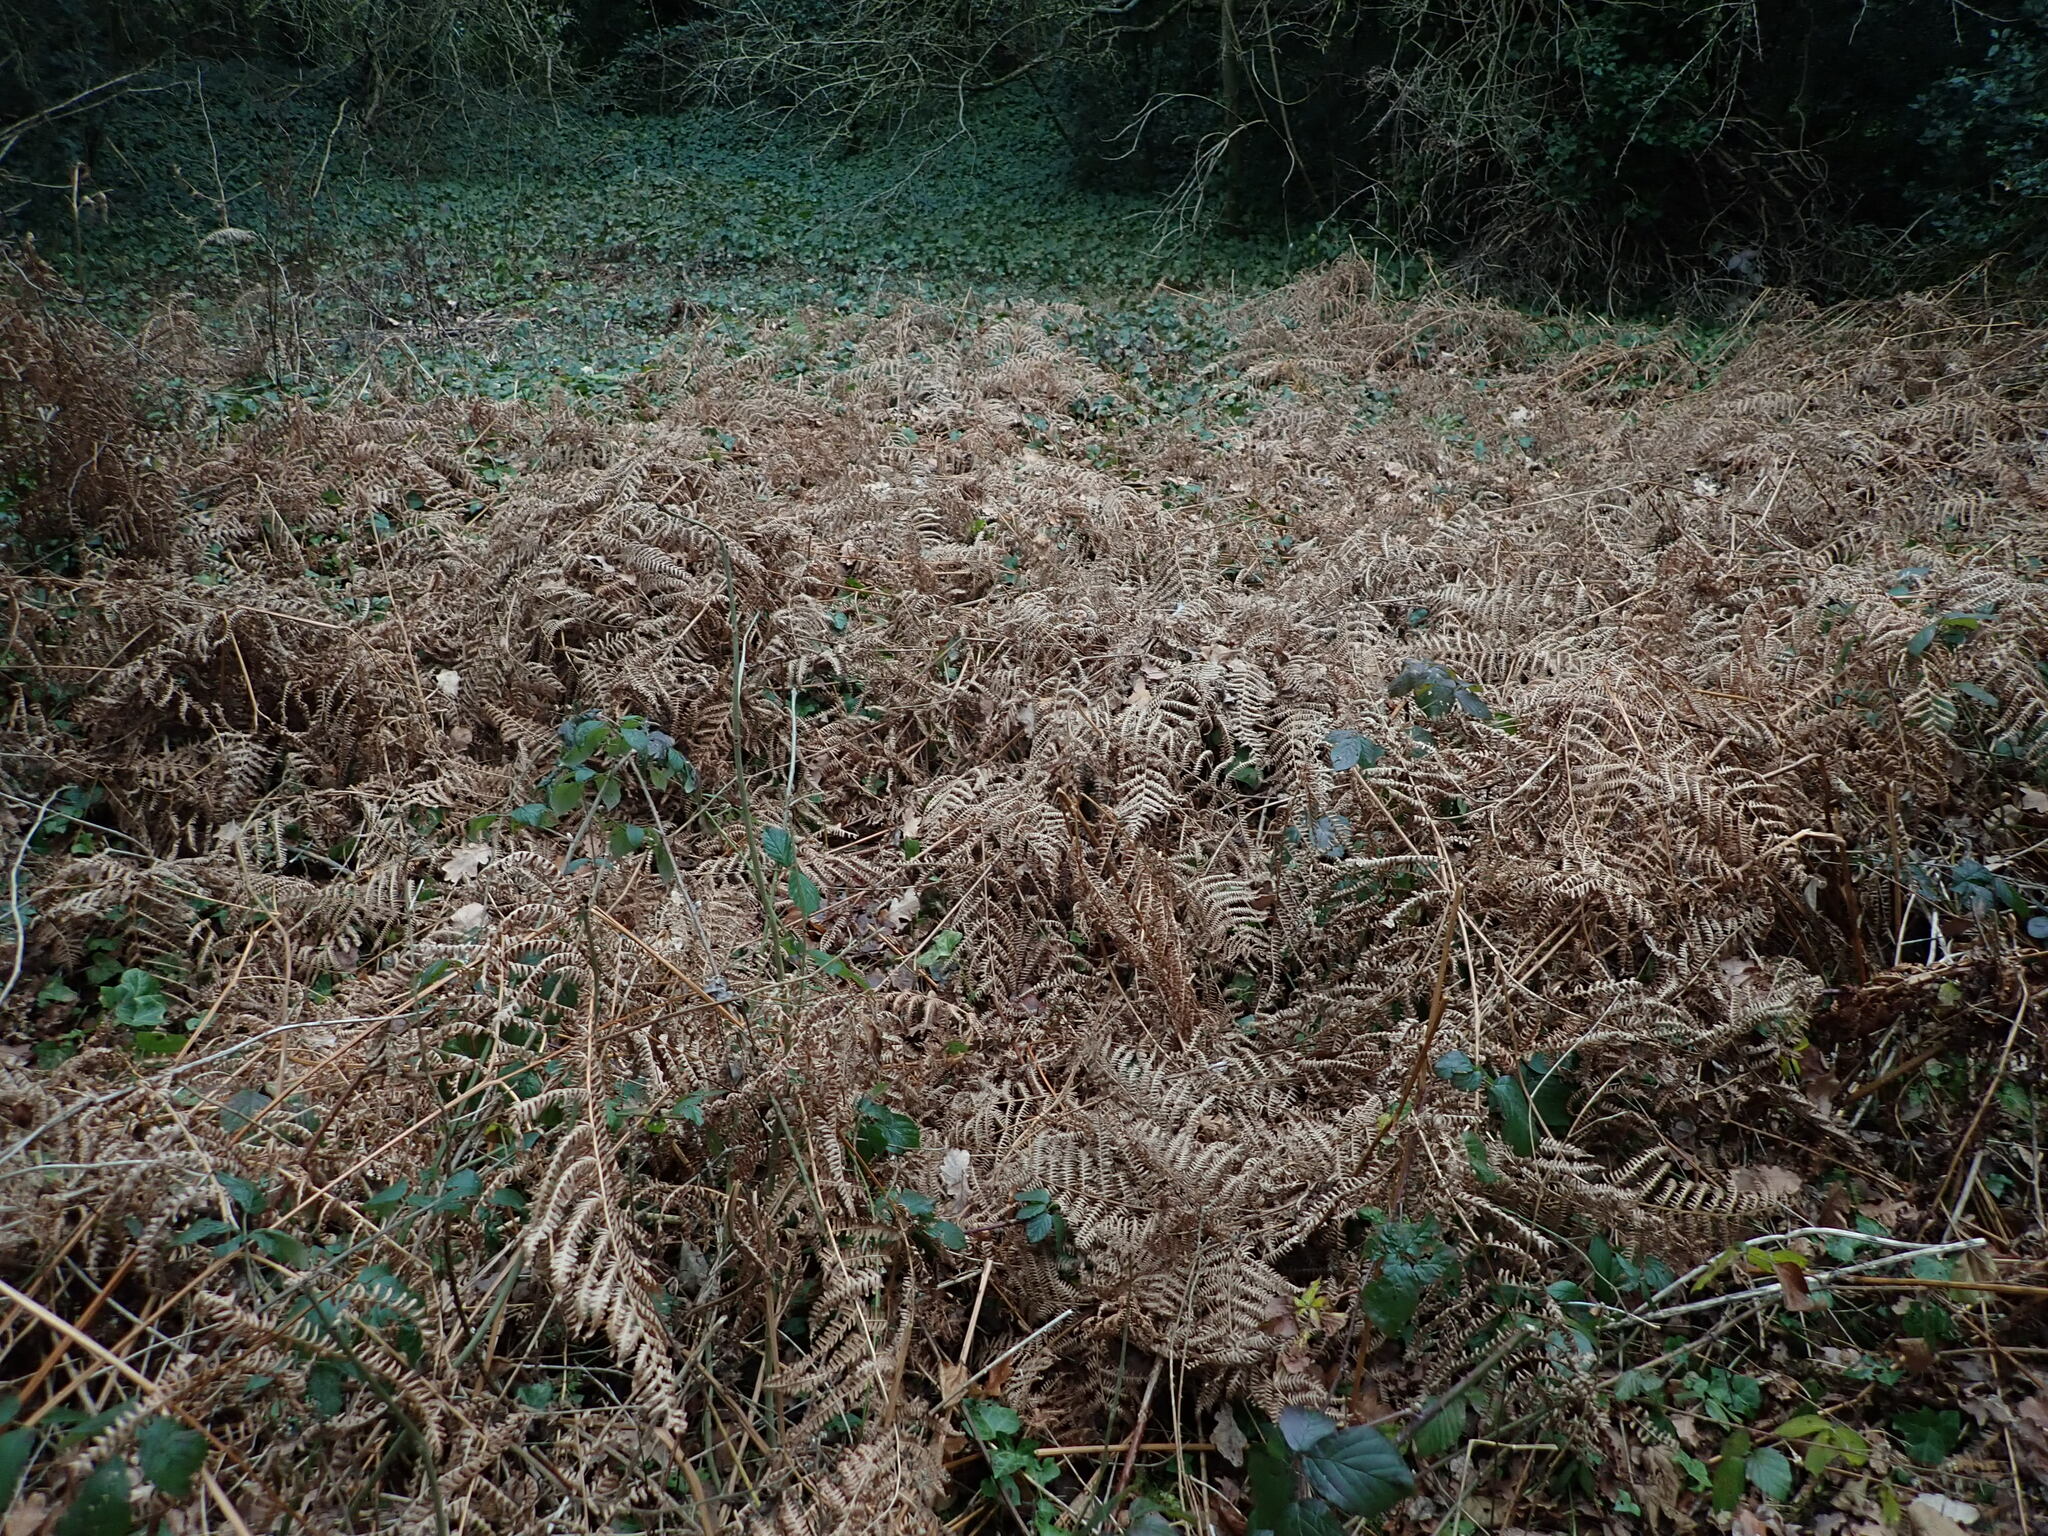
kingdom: Plantae
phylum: Tracheophyta
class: Polypodiopsida
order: Polypodiales
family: Dennstaedtiaceae
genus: Pteridium
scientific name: Pteridium aquilinum
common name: Bracken
